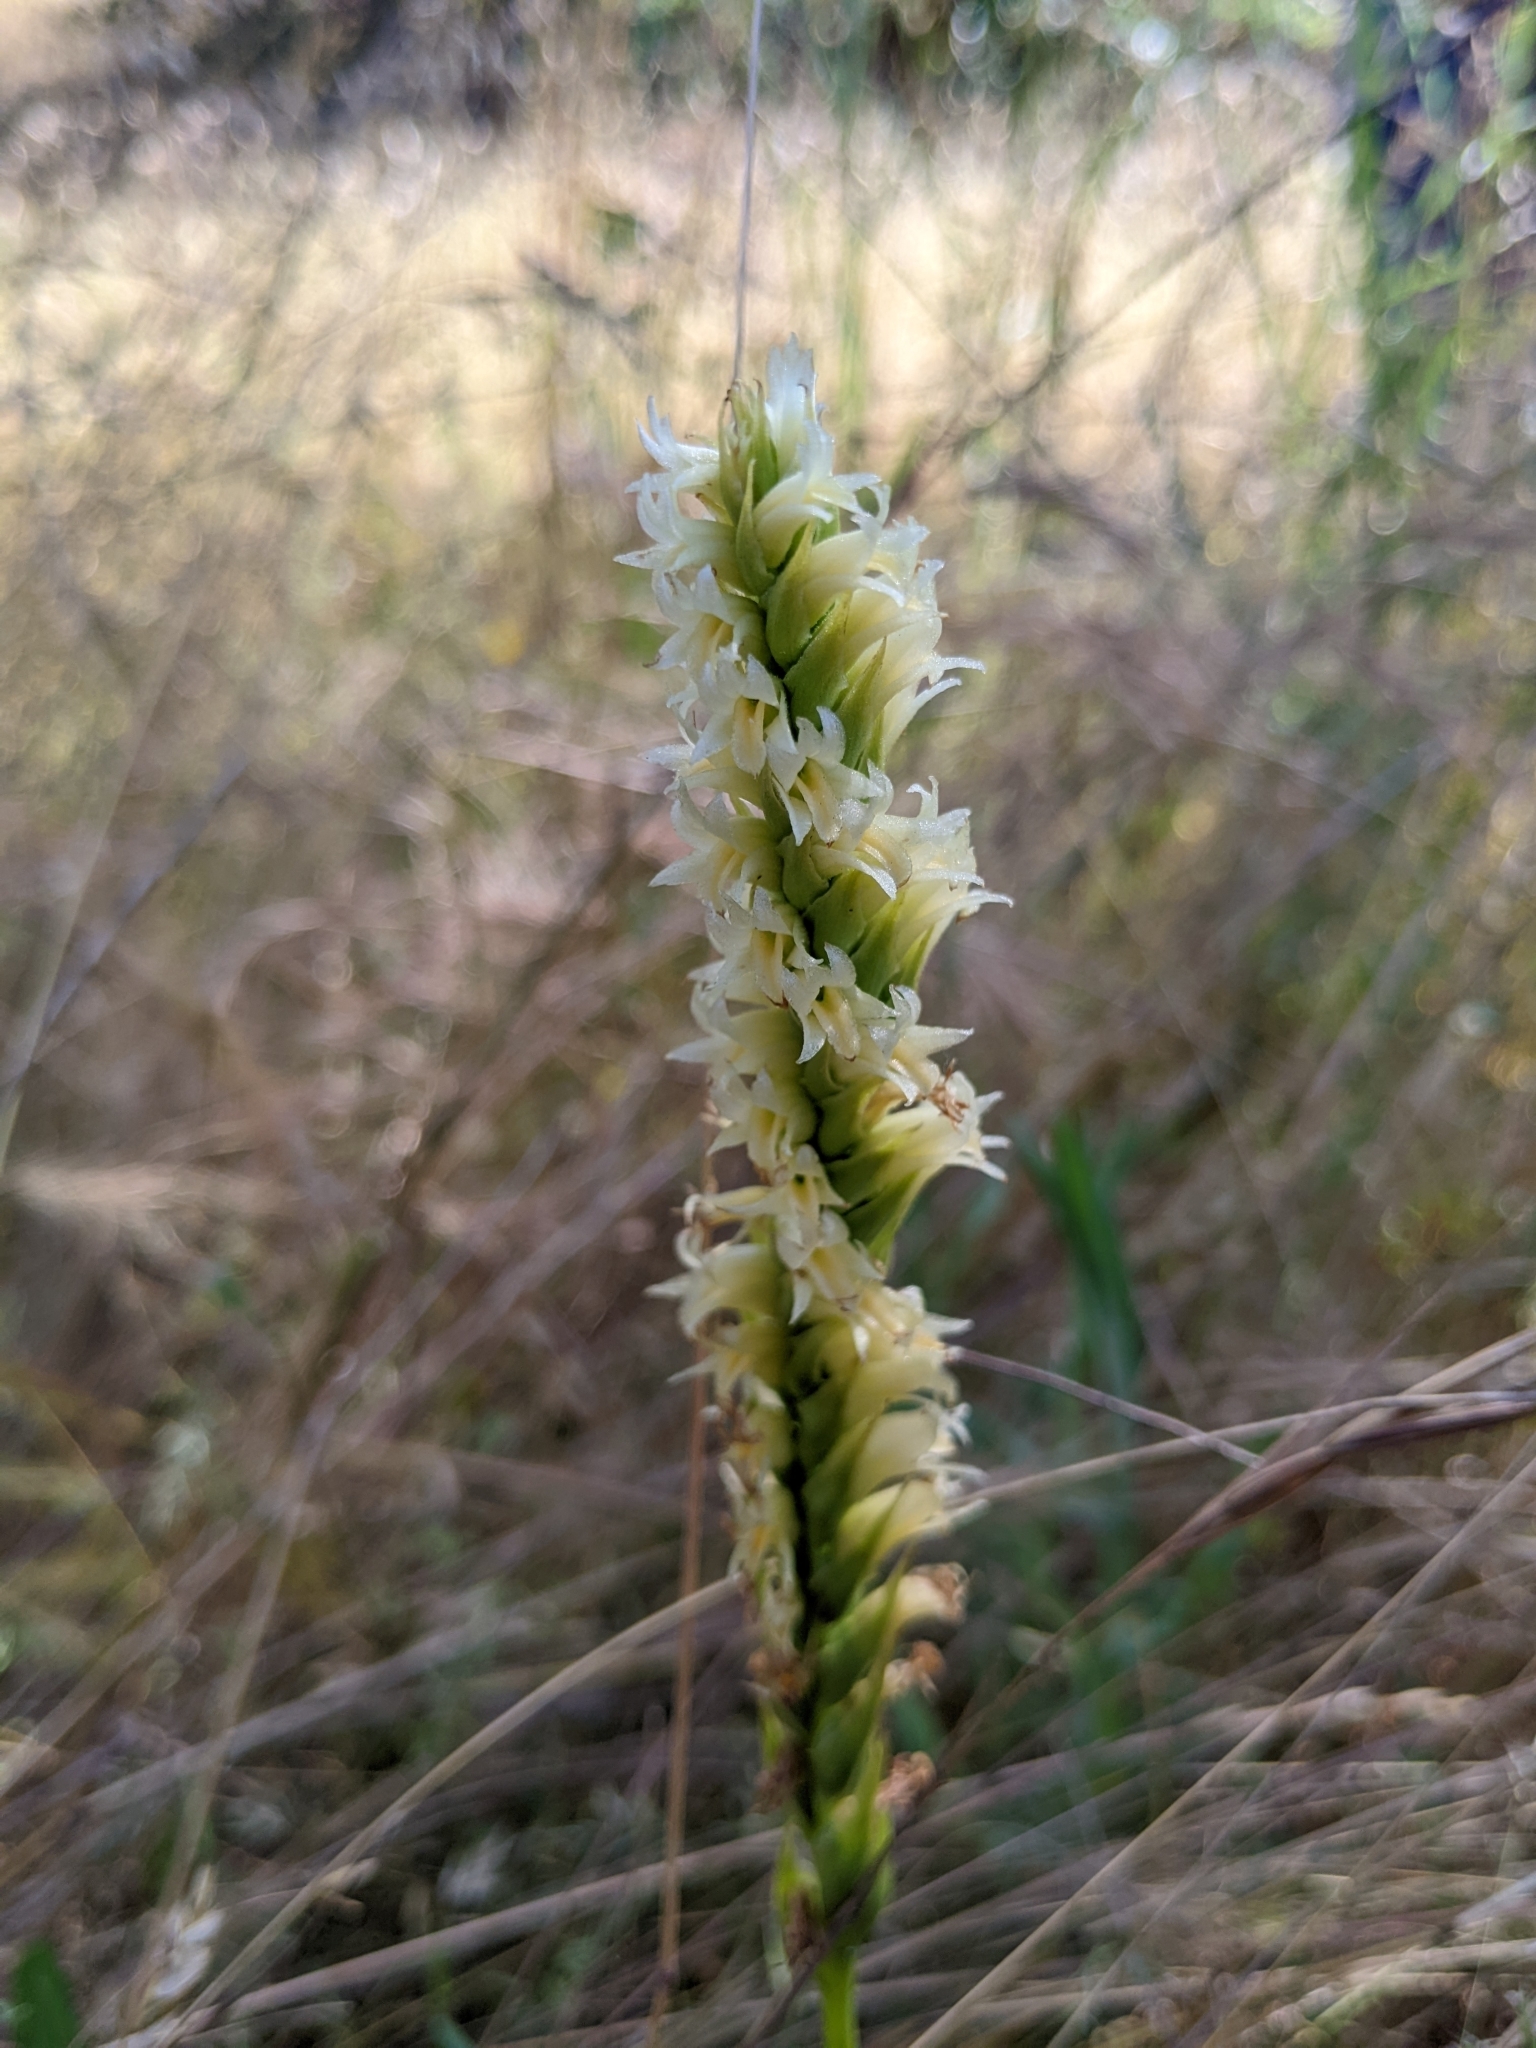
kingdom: Plantae
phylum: Tracheophyta
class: Liliopsida
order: Asparagales
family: Orchidaceae
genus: Spiranthes
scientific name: Spiranthes porrifolia
